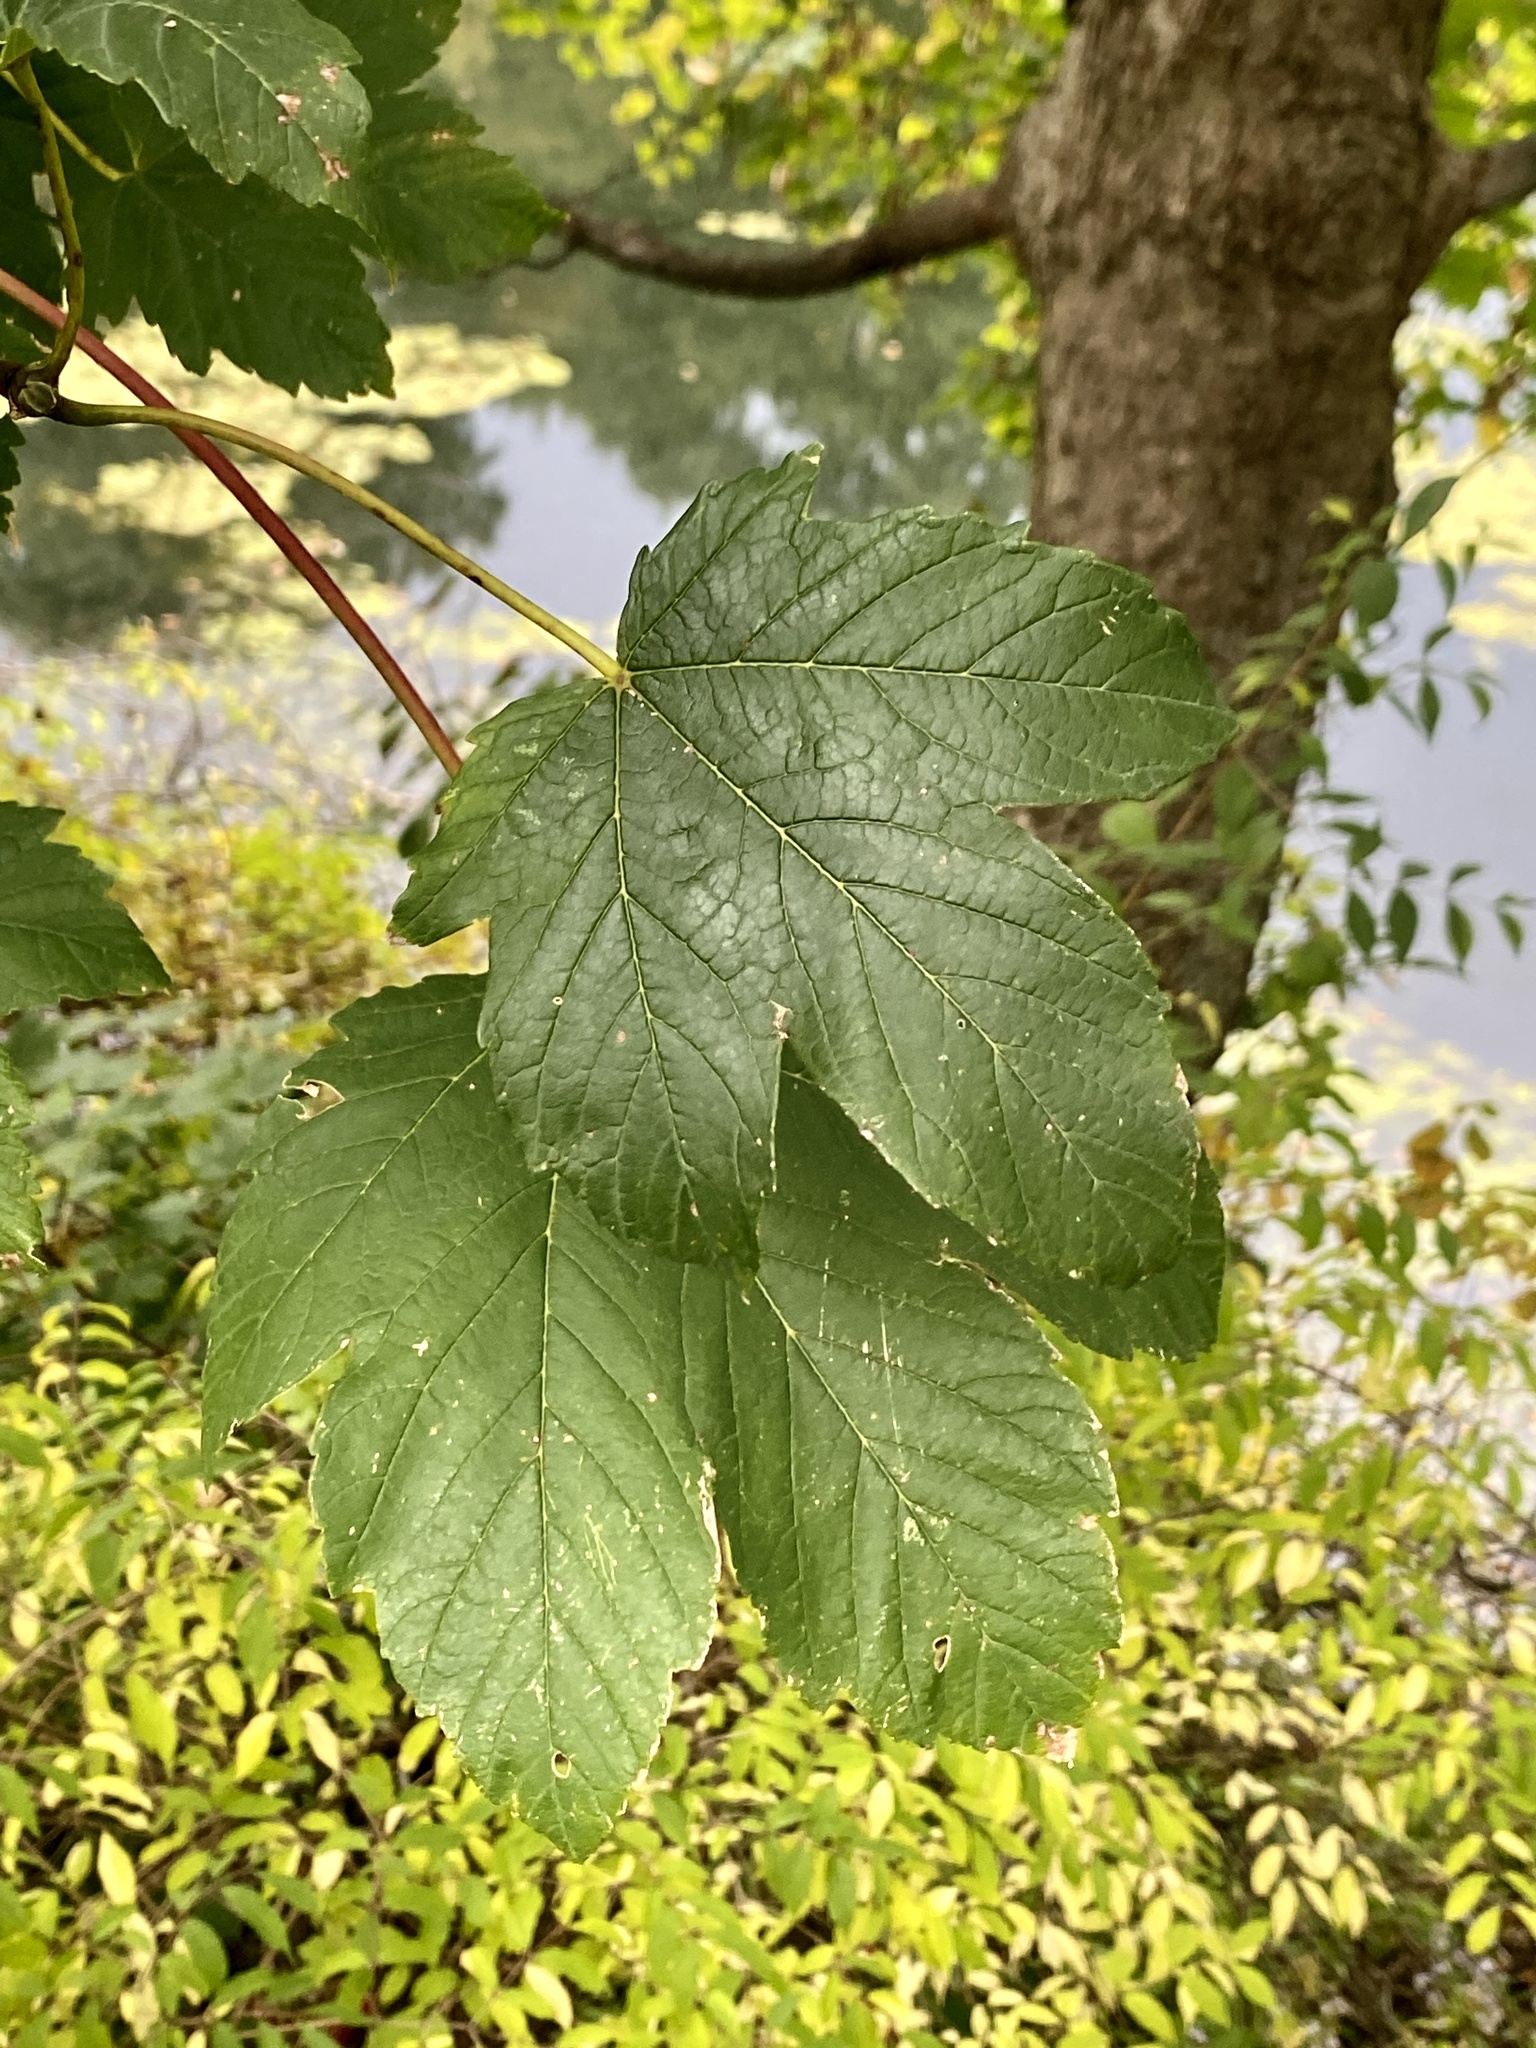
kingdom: Plantae
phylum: Tracheophyta
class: Magnoliopsida
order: Sapindales
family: Sapindaceae
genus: Acer
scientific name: Acer pseudoplatanus
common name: Sycamore
